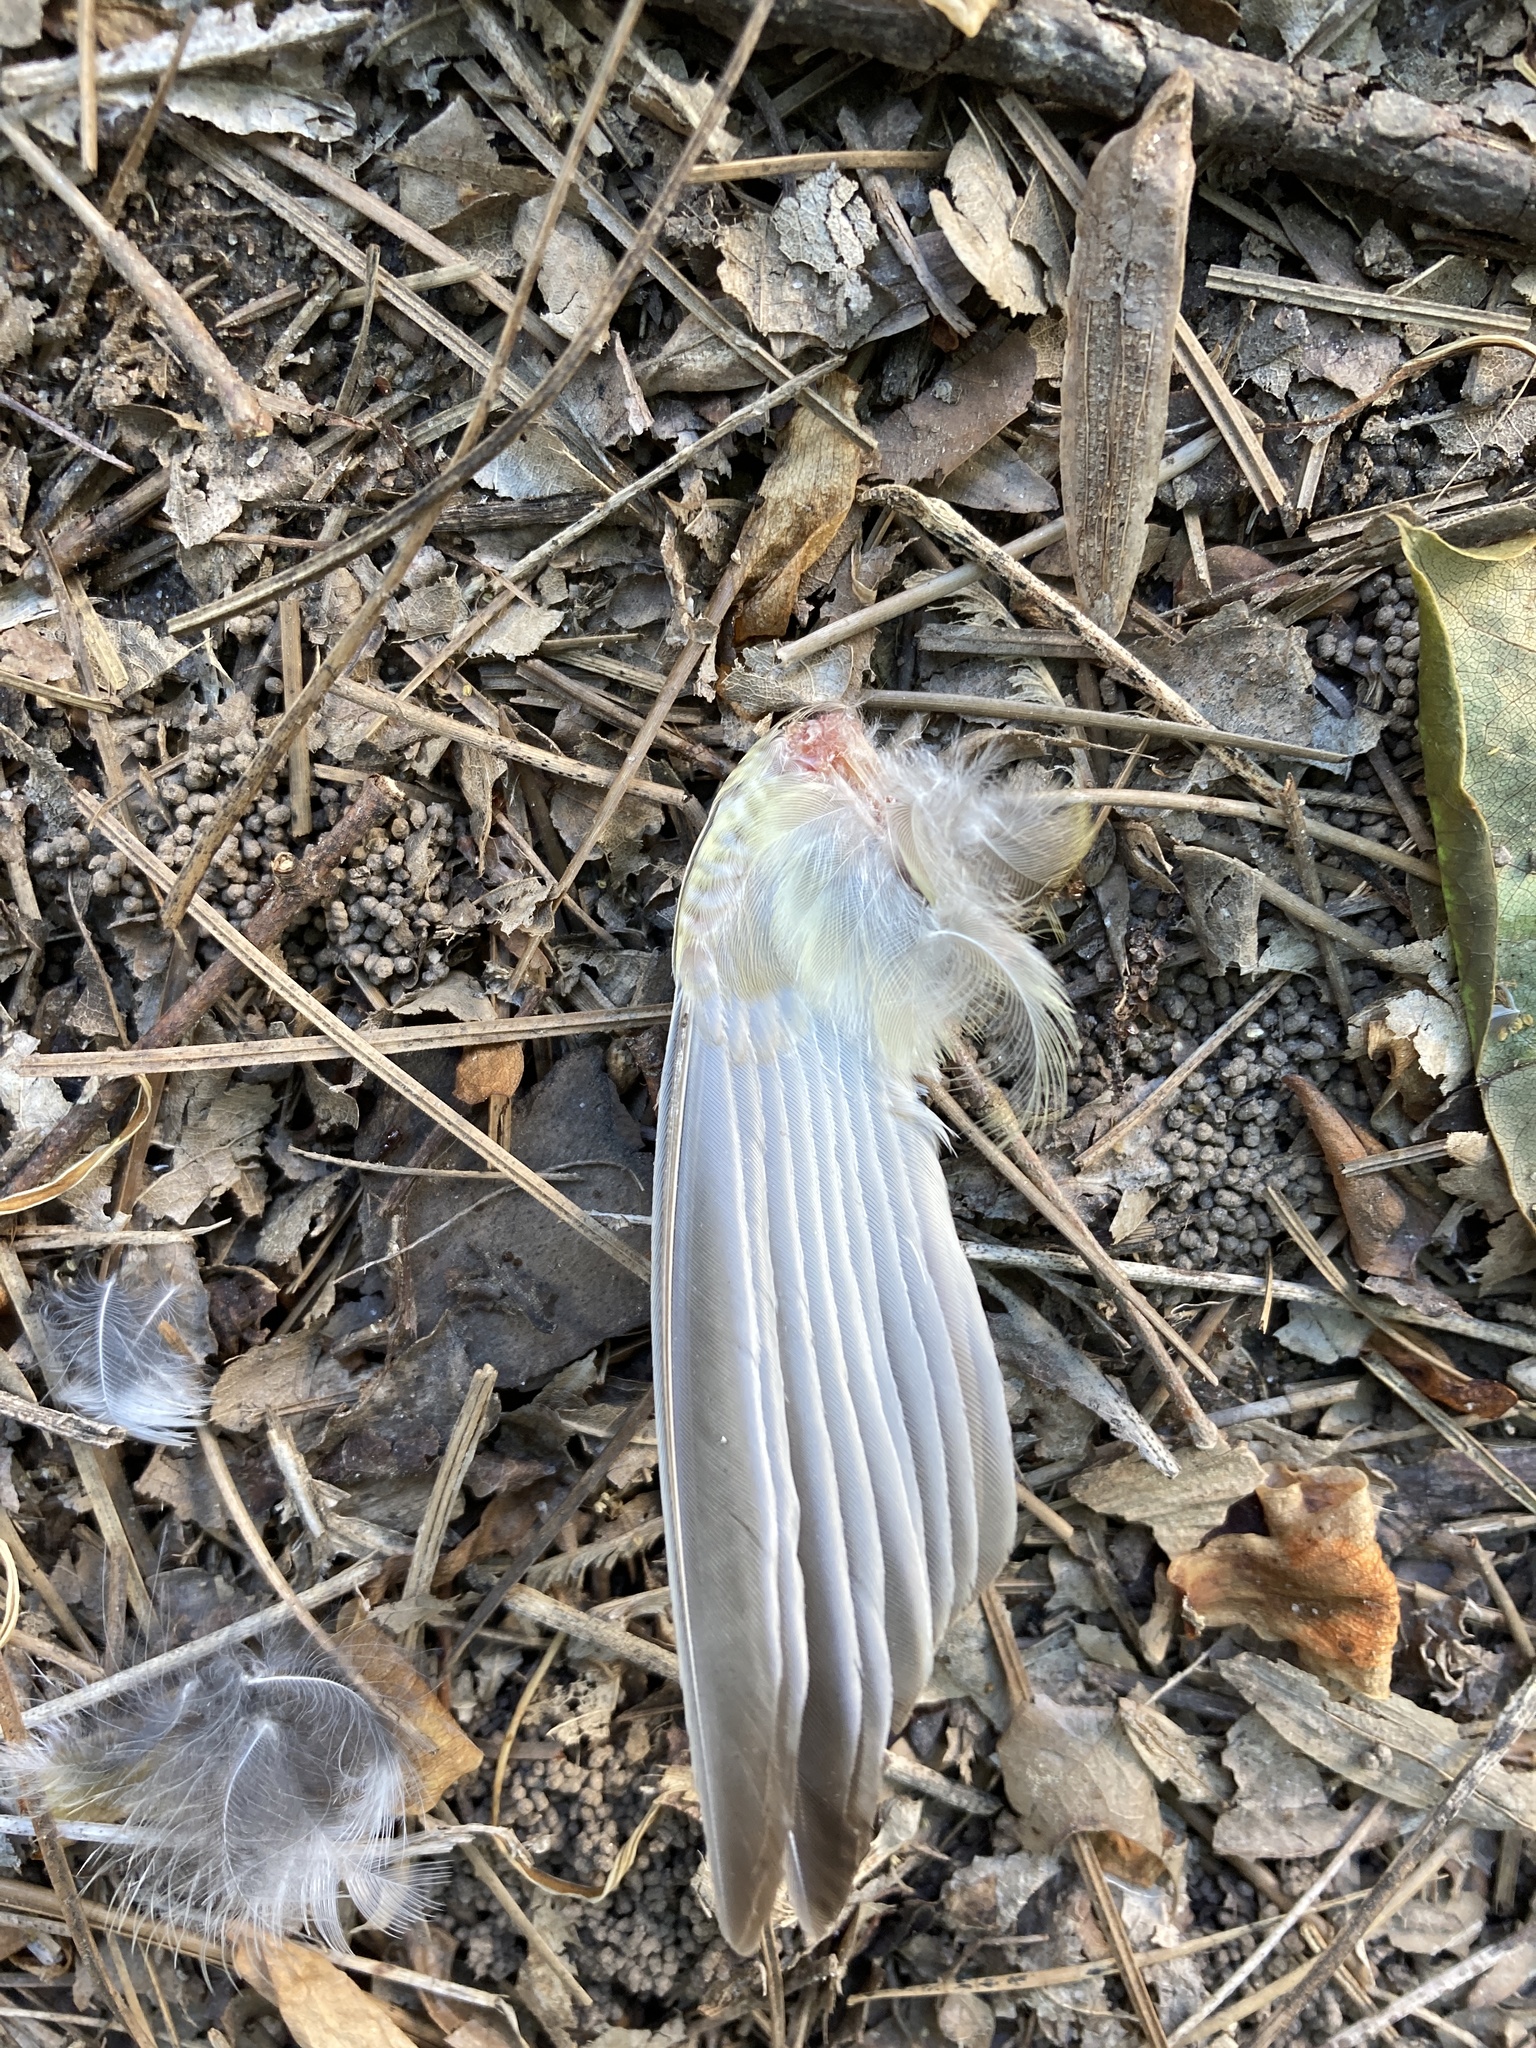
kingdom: Animalia
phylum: Chordata
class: Aves
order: Passeriformes
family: Parulidae
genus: Seiurus
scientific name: Seiurus aurocapilla
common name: Ovenbird
